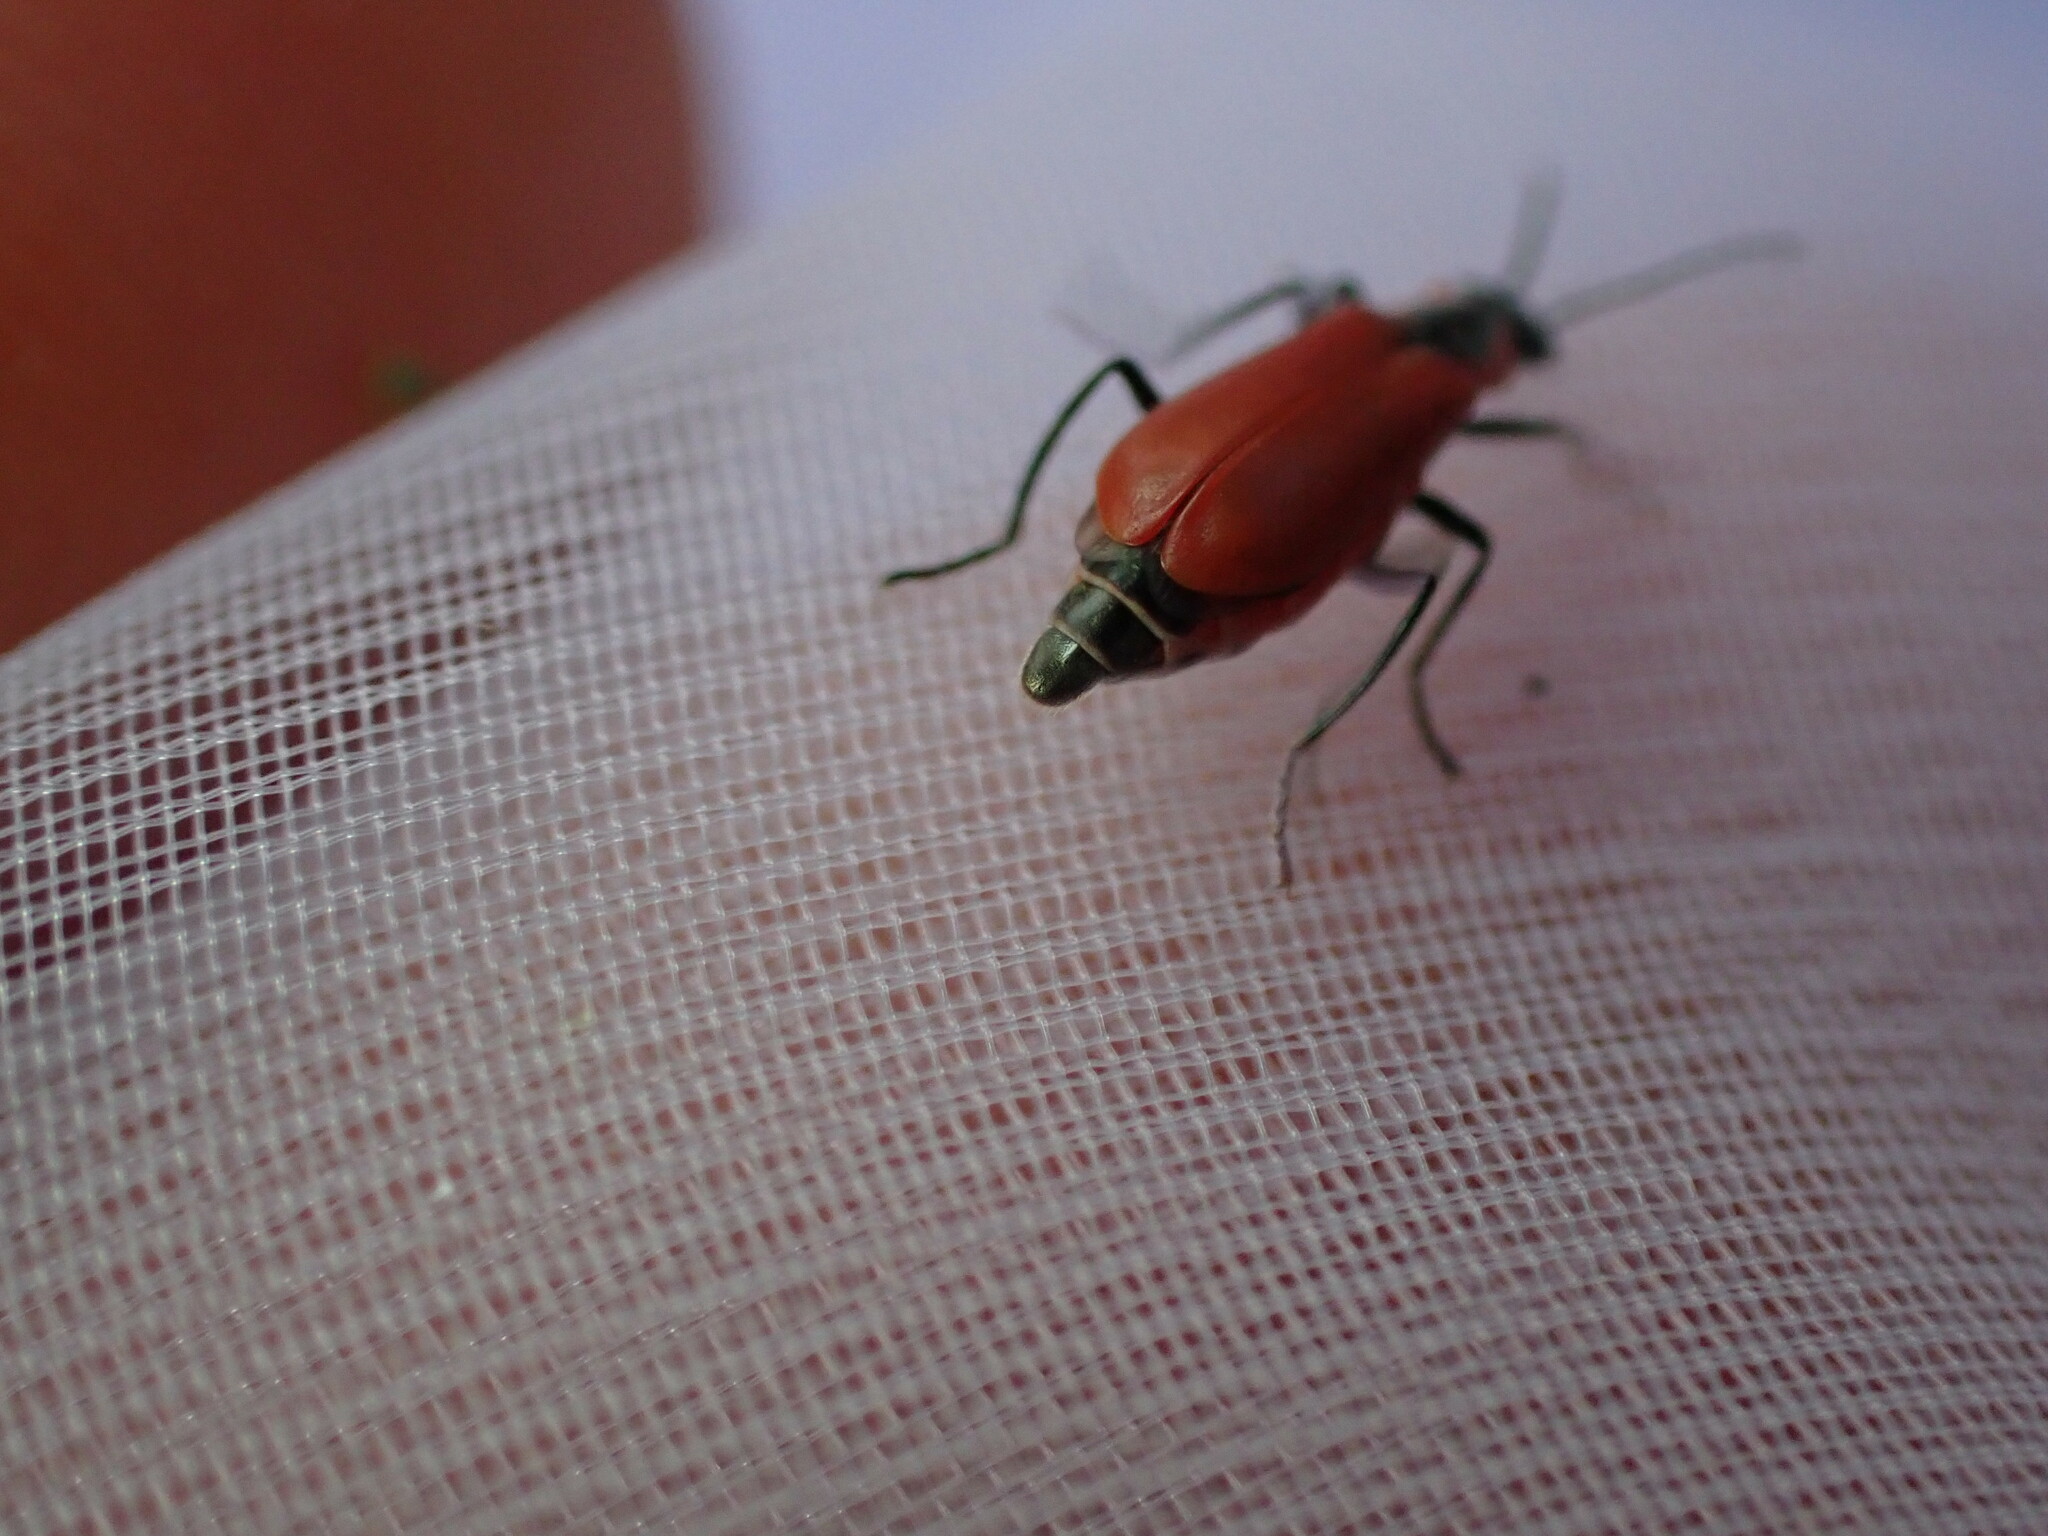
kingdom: Animalia
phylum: Arthropoda
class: Insecta
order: Coleoptera
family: Melyridae
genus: Anthocomus
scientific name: Anthocomus rufus
